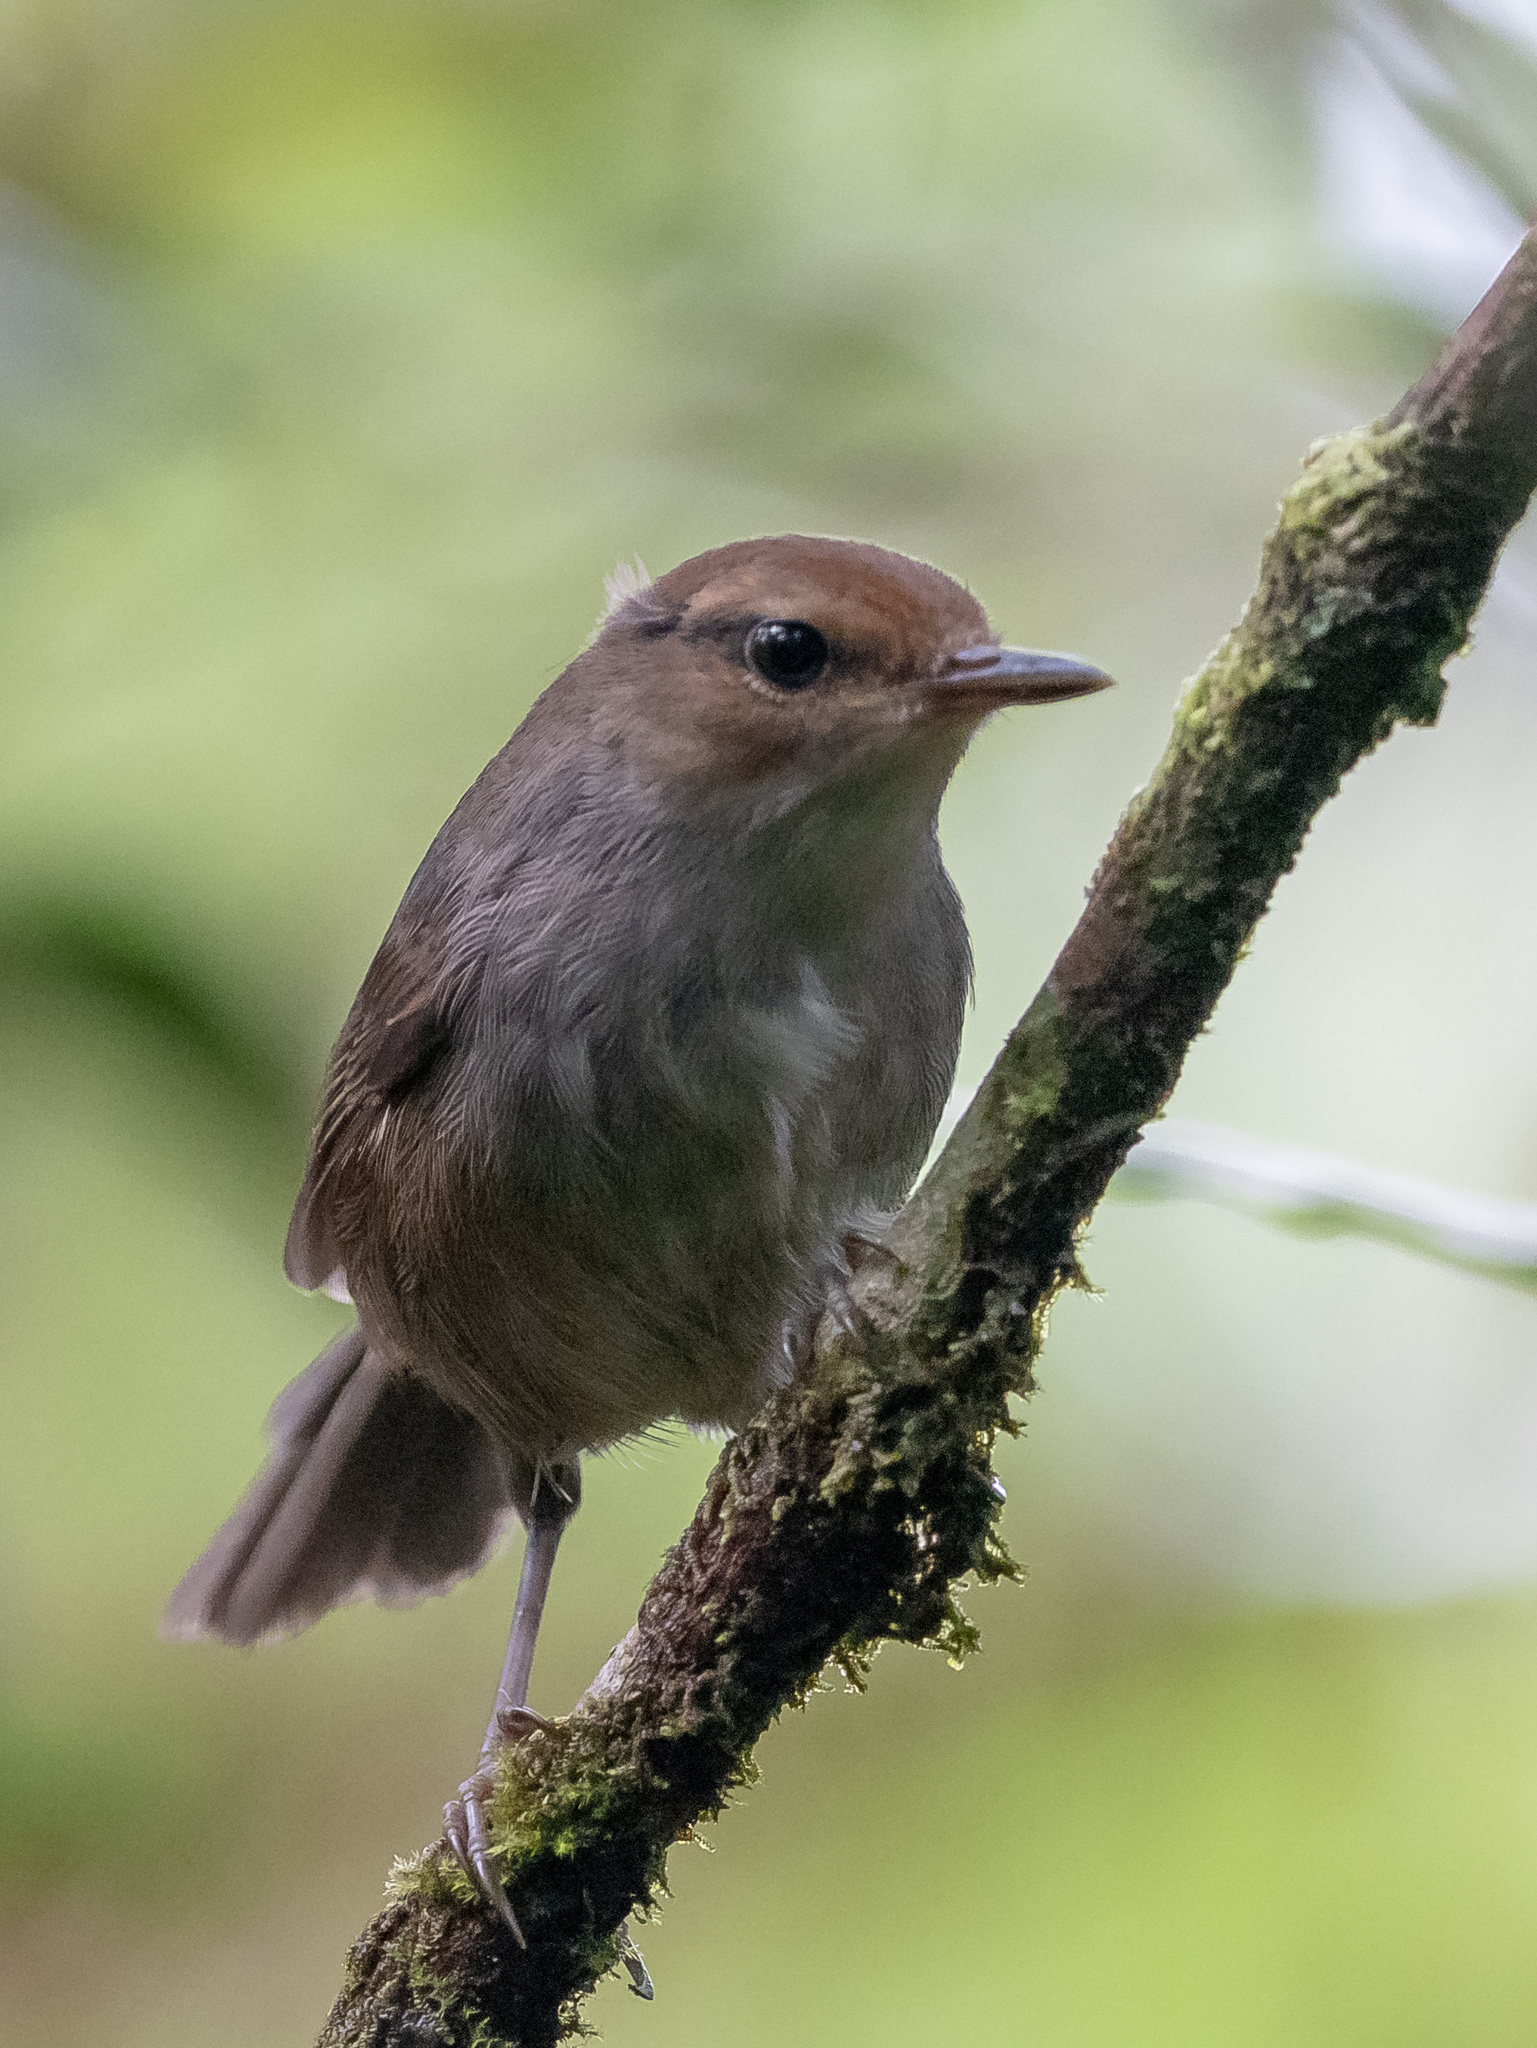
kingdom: Animalia
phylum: Chordata
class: Aves
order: Passeriformes
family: Cettiidae
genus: Horornis
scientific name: Horornis ruficapilla
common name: Fiji bush warbler
